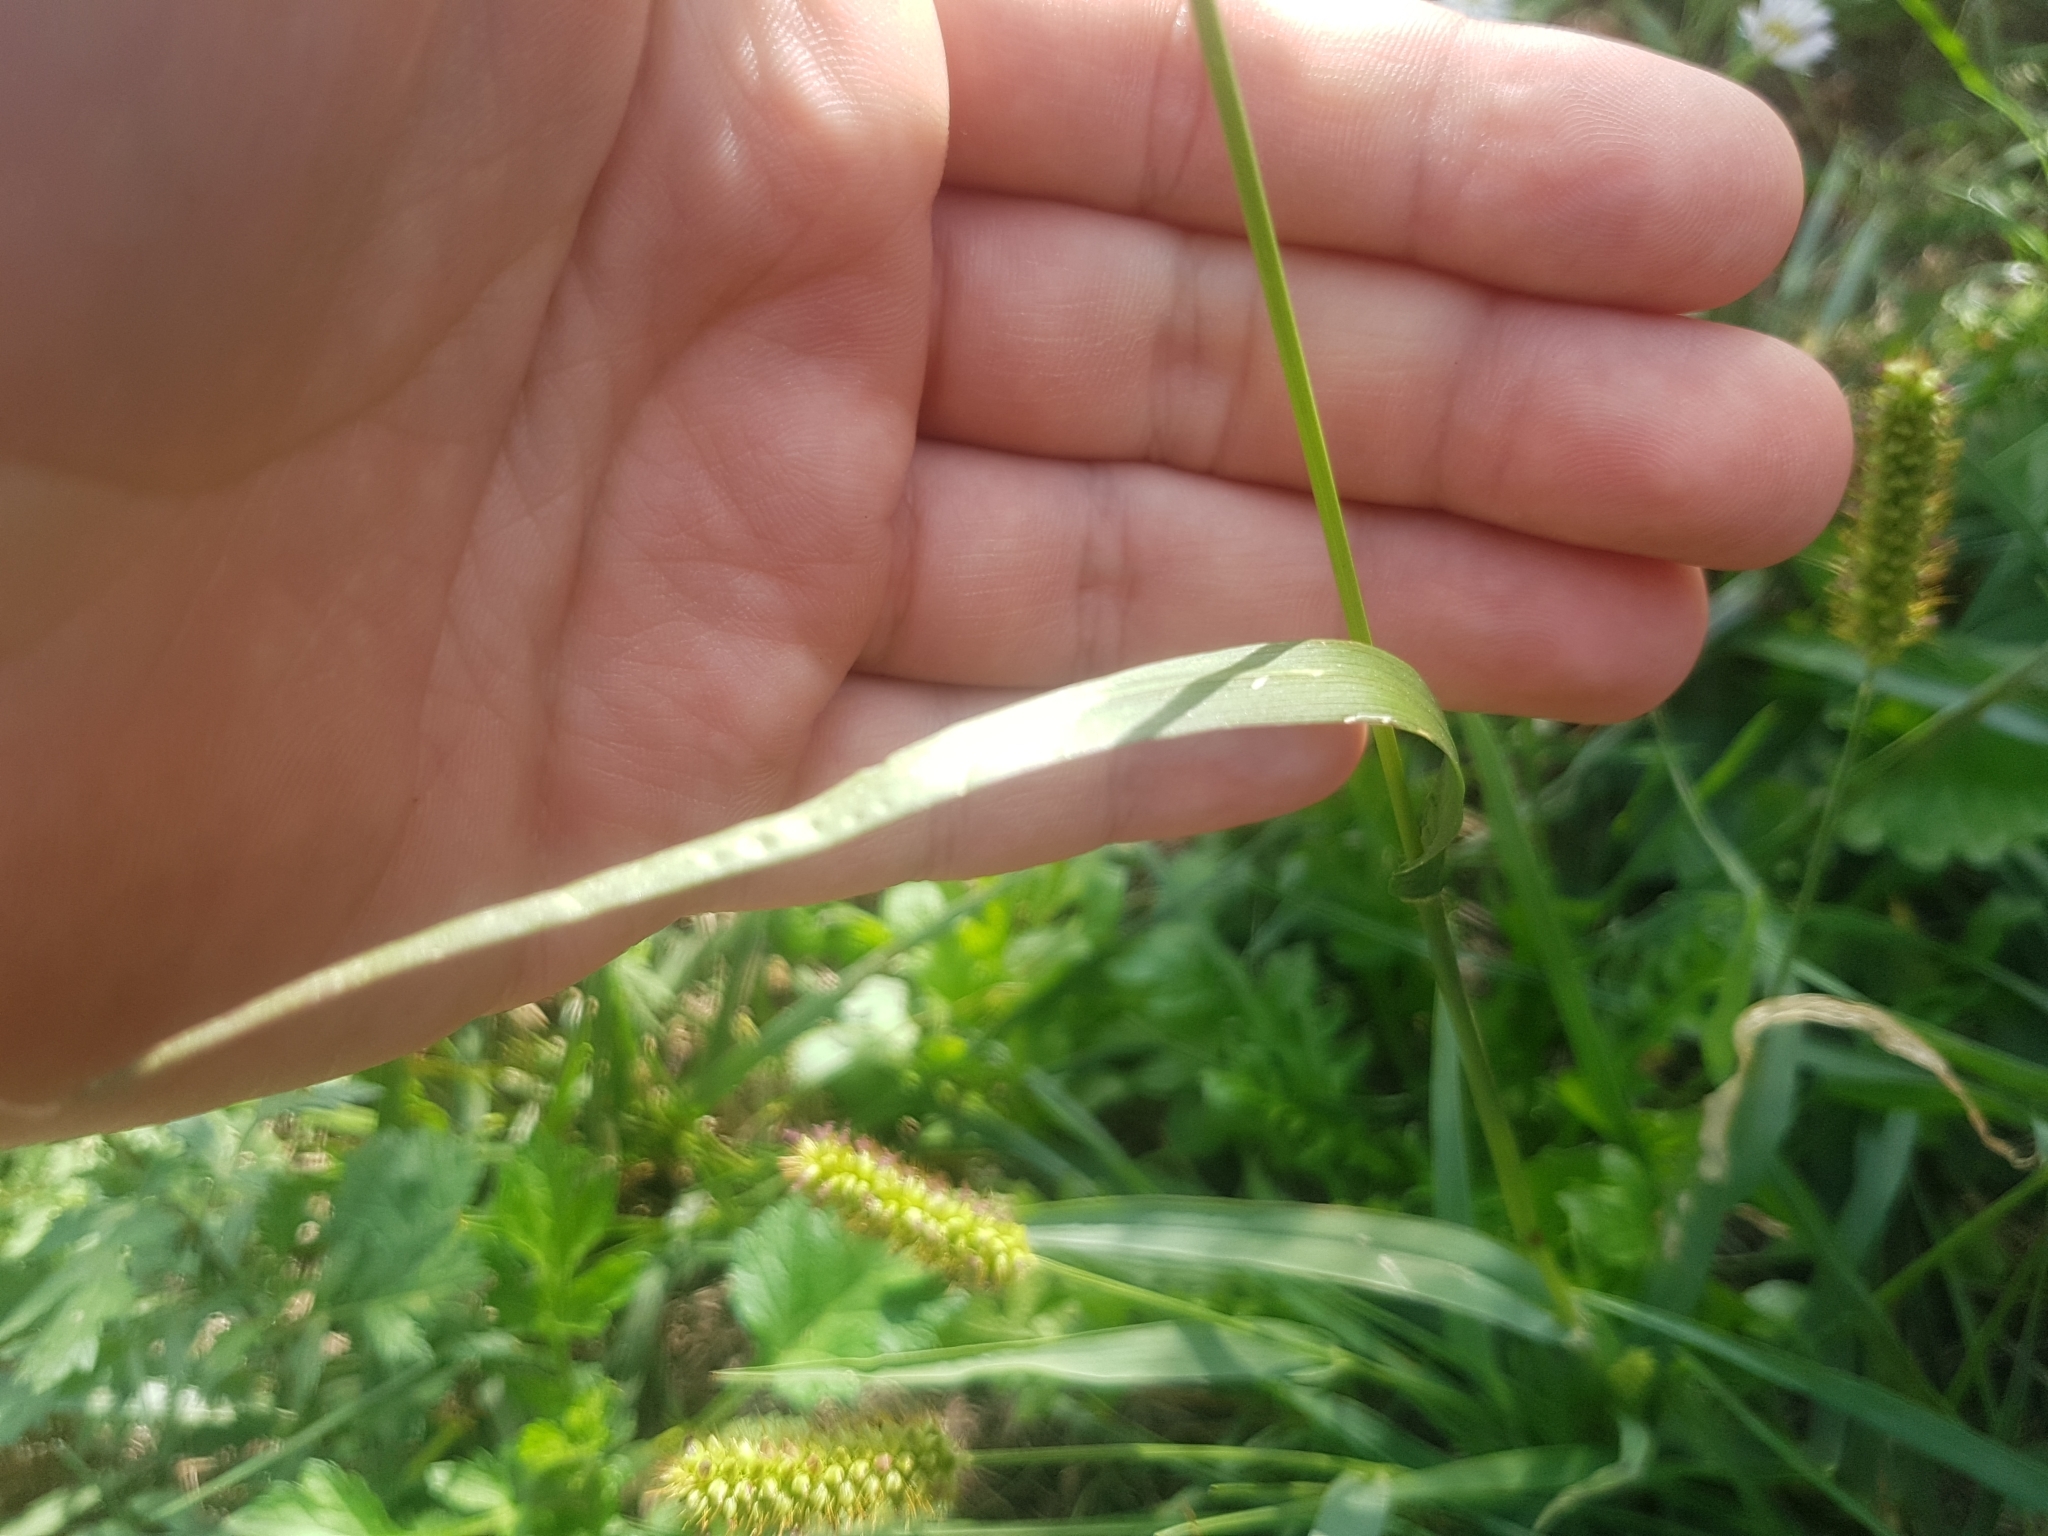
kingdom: Plantae
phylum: Tracheophyta
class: Liliopsida
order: Poales
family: Poaceae
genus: Setaria
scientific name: Setaria pumila
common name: Yellow bristle-grass
